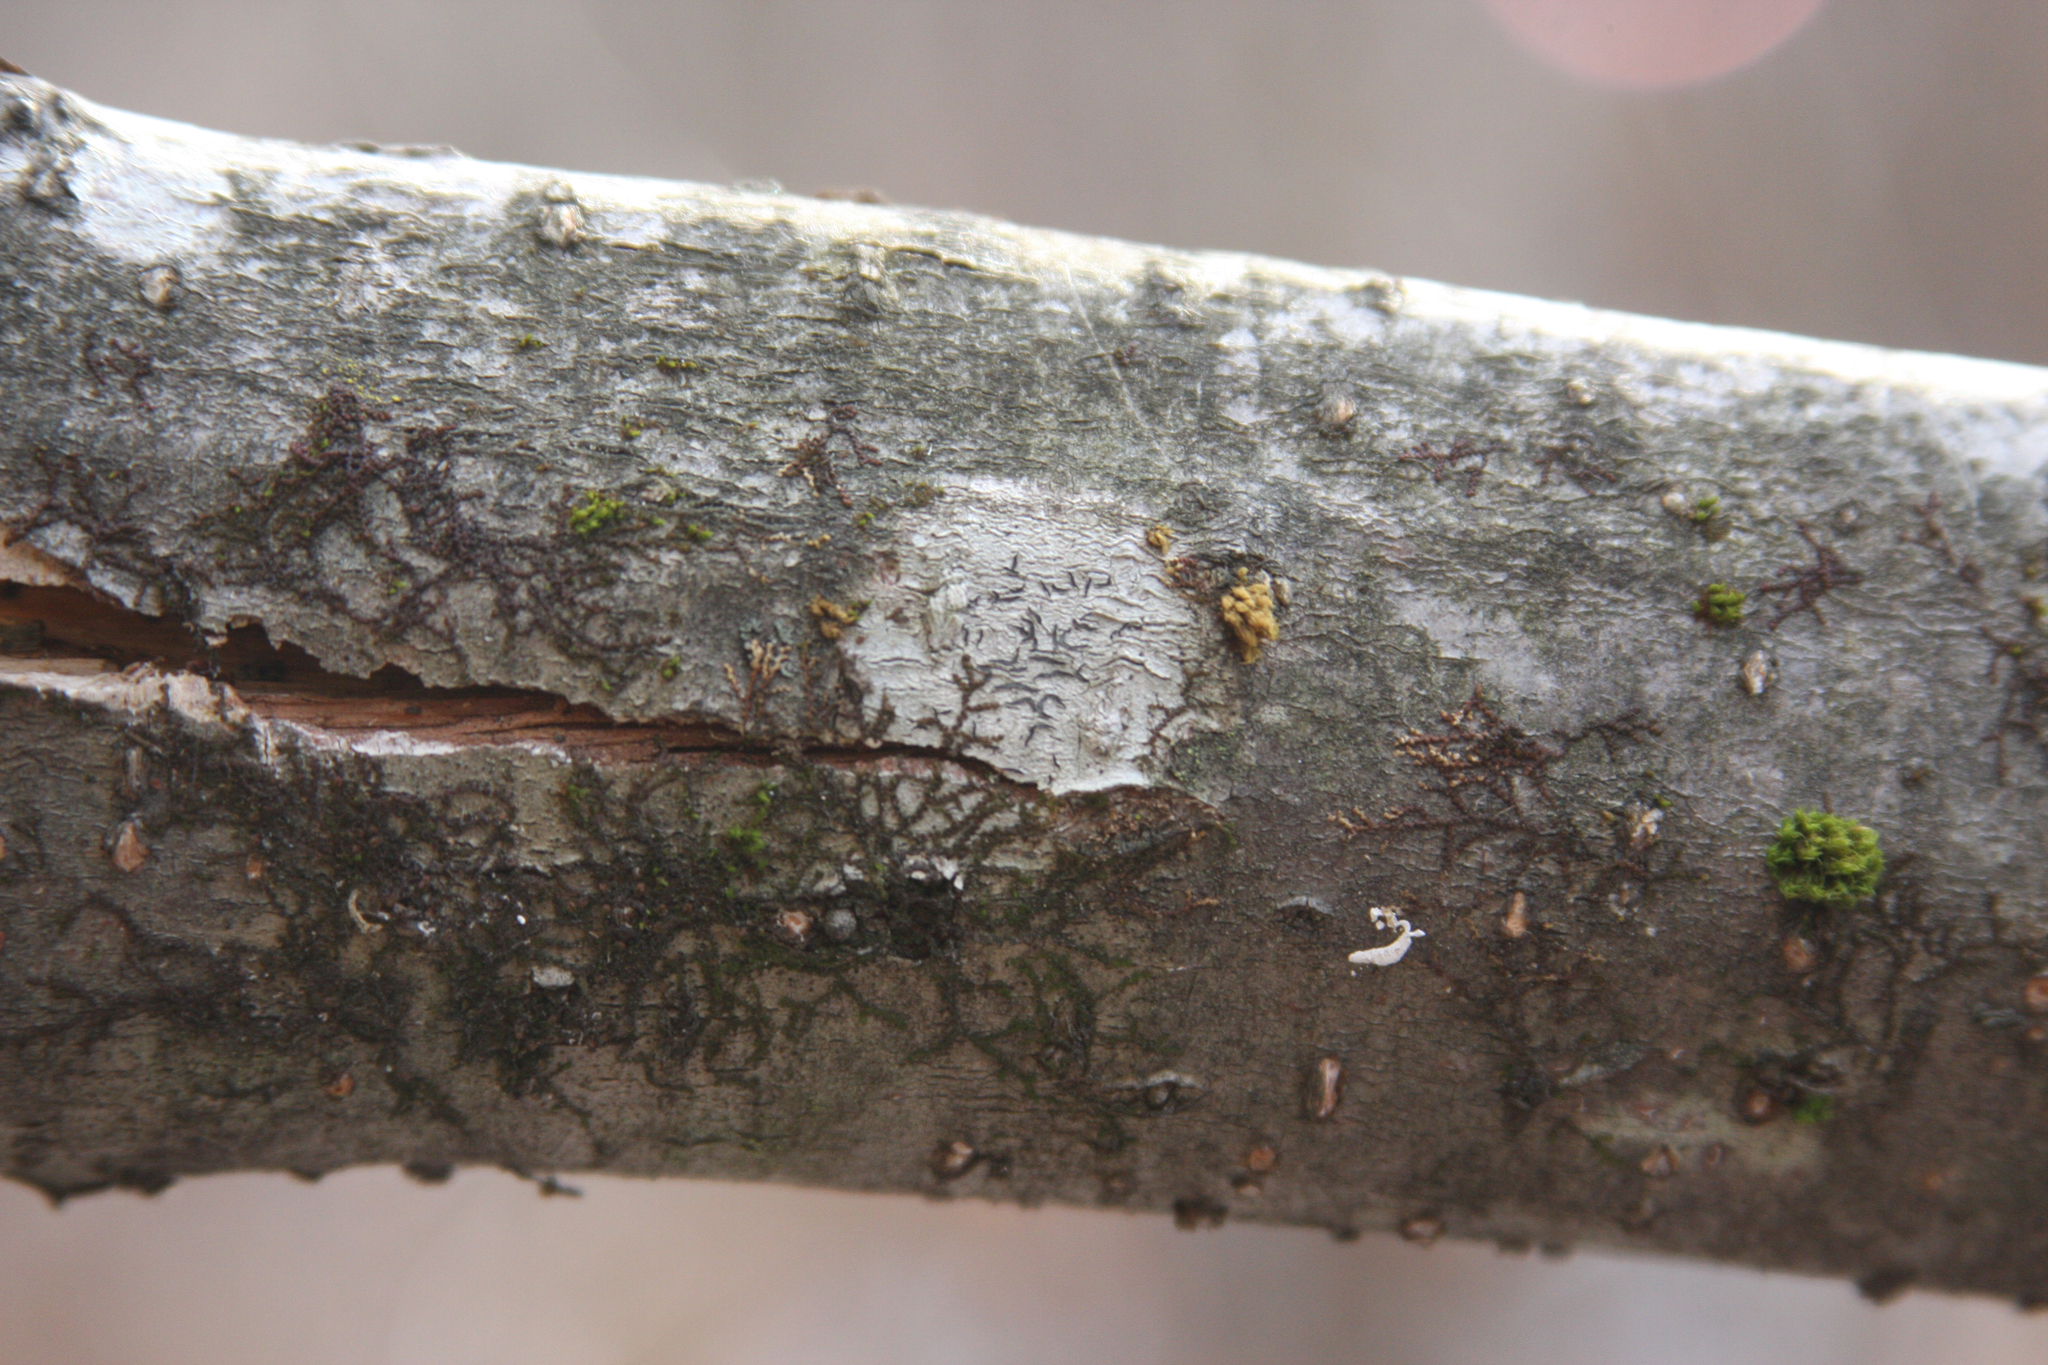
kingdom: Plantae
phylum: Bryophyta
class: Bryopsida
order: Orthotrichales
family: Orthotrichaceae
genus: Ulota
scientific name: Ulota crispa
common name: Crisped pincushion moss
